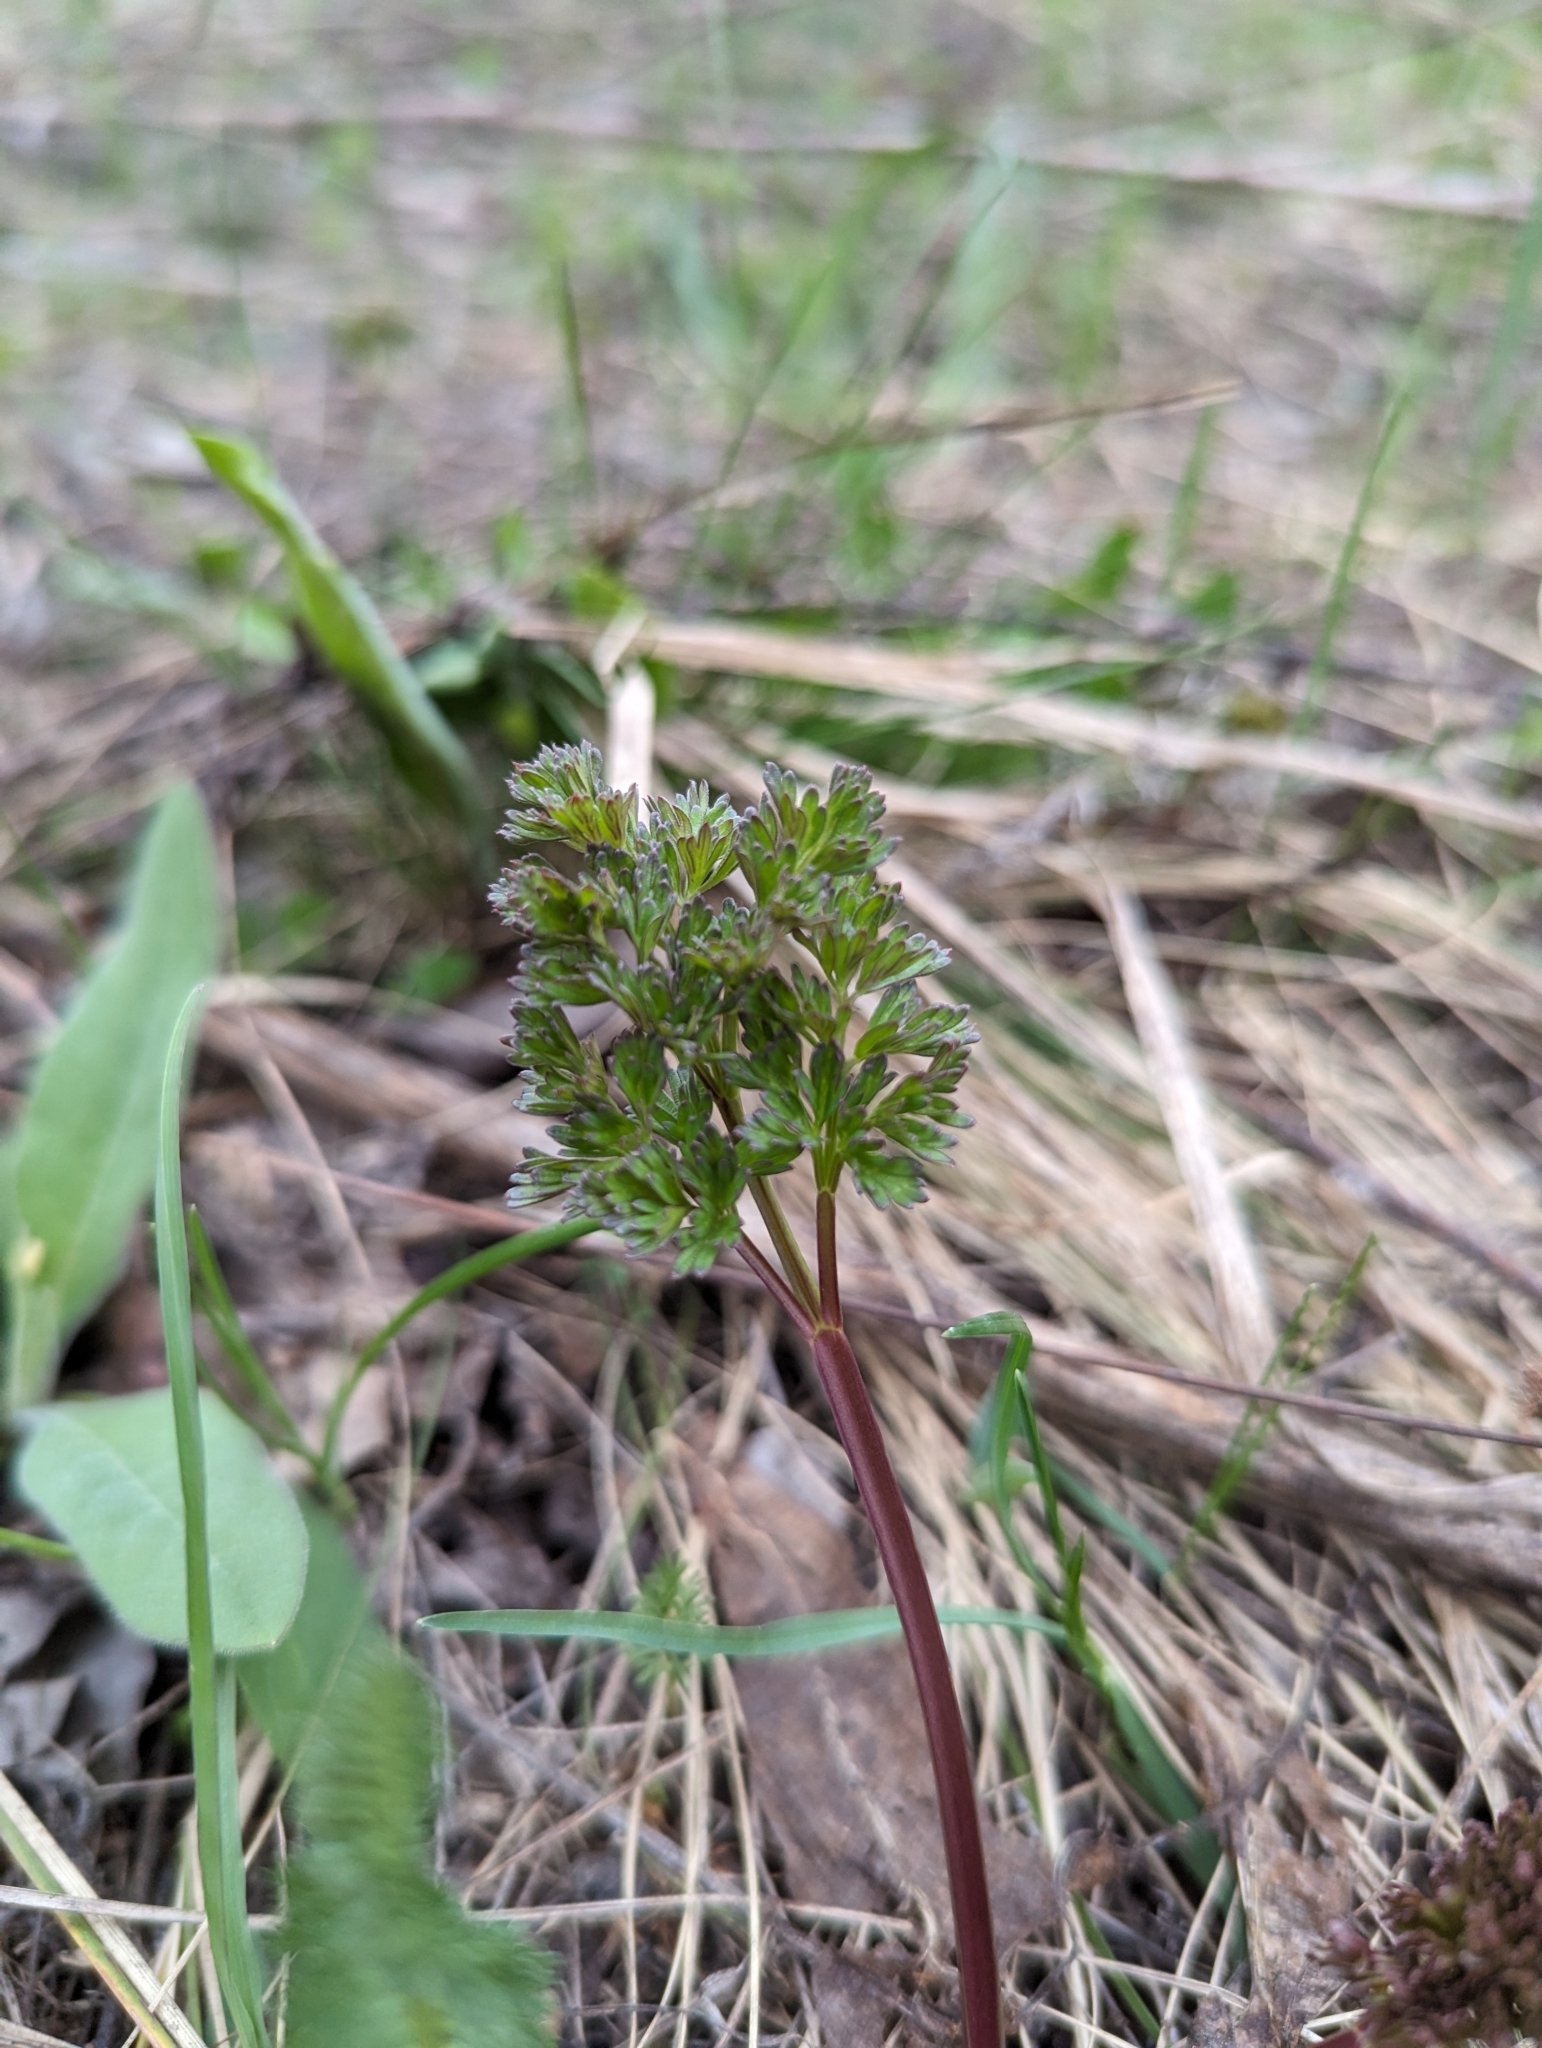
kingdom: Plantae
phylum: Tracheophyta
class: Magnoliopsida
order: Apiales
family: Apiaceae
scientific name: Apiaceae
